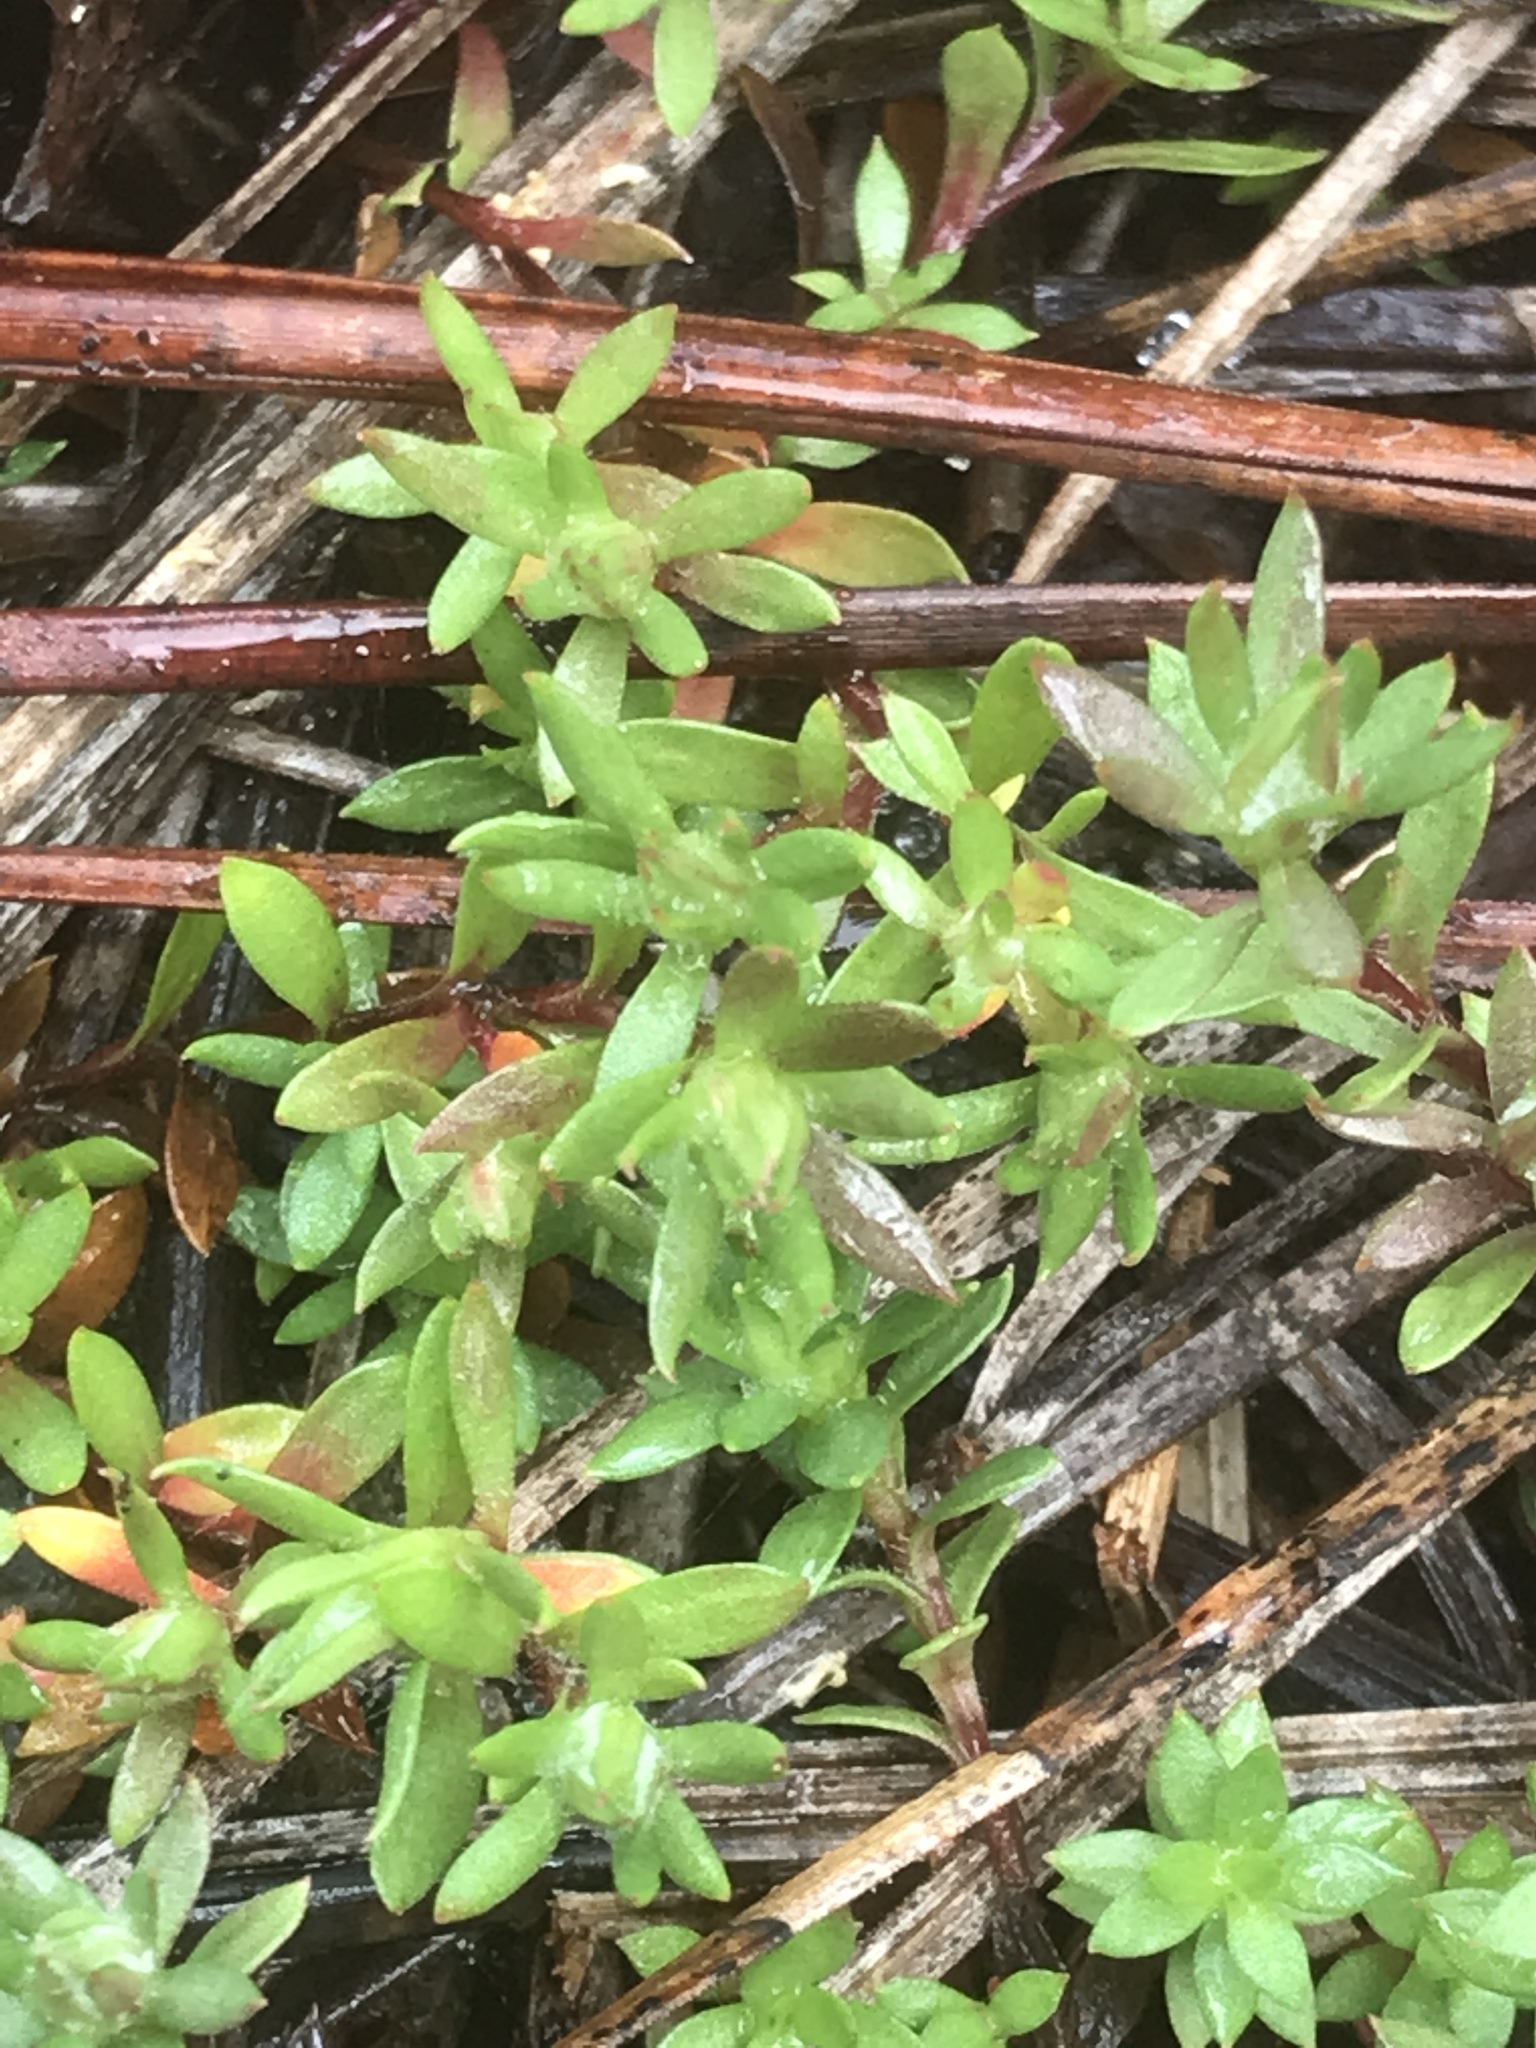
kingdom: Plantae
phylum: Tracheophyta
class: Magnoliopsida
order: Ericales
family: Diapensiaceae
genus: Pyxidanthera
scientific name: Pyxidanthera barbulata
